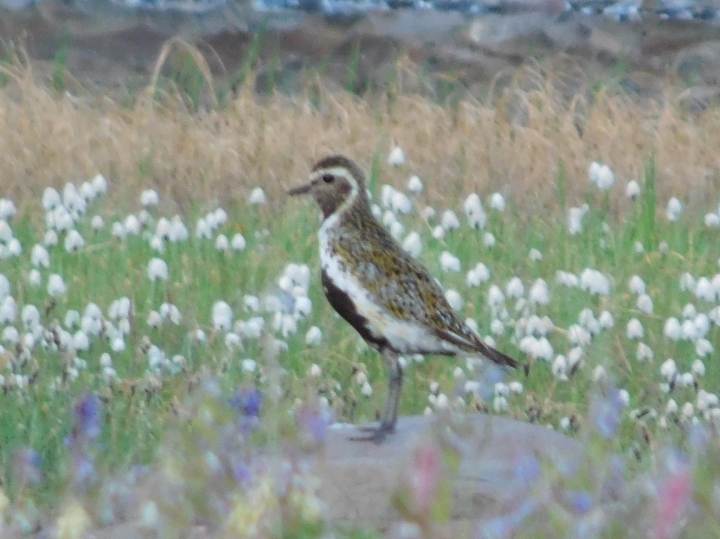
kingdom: Animalia
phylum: Chordata
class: Aves
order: Charadriiformes
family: Charadriidae
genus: Pluvialis
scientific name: Pluvialis apricaria
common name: European golden plover
